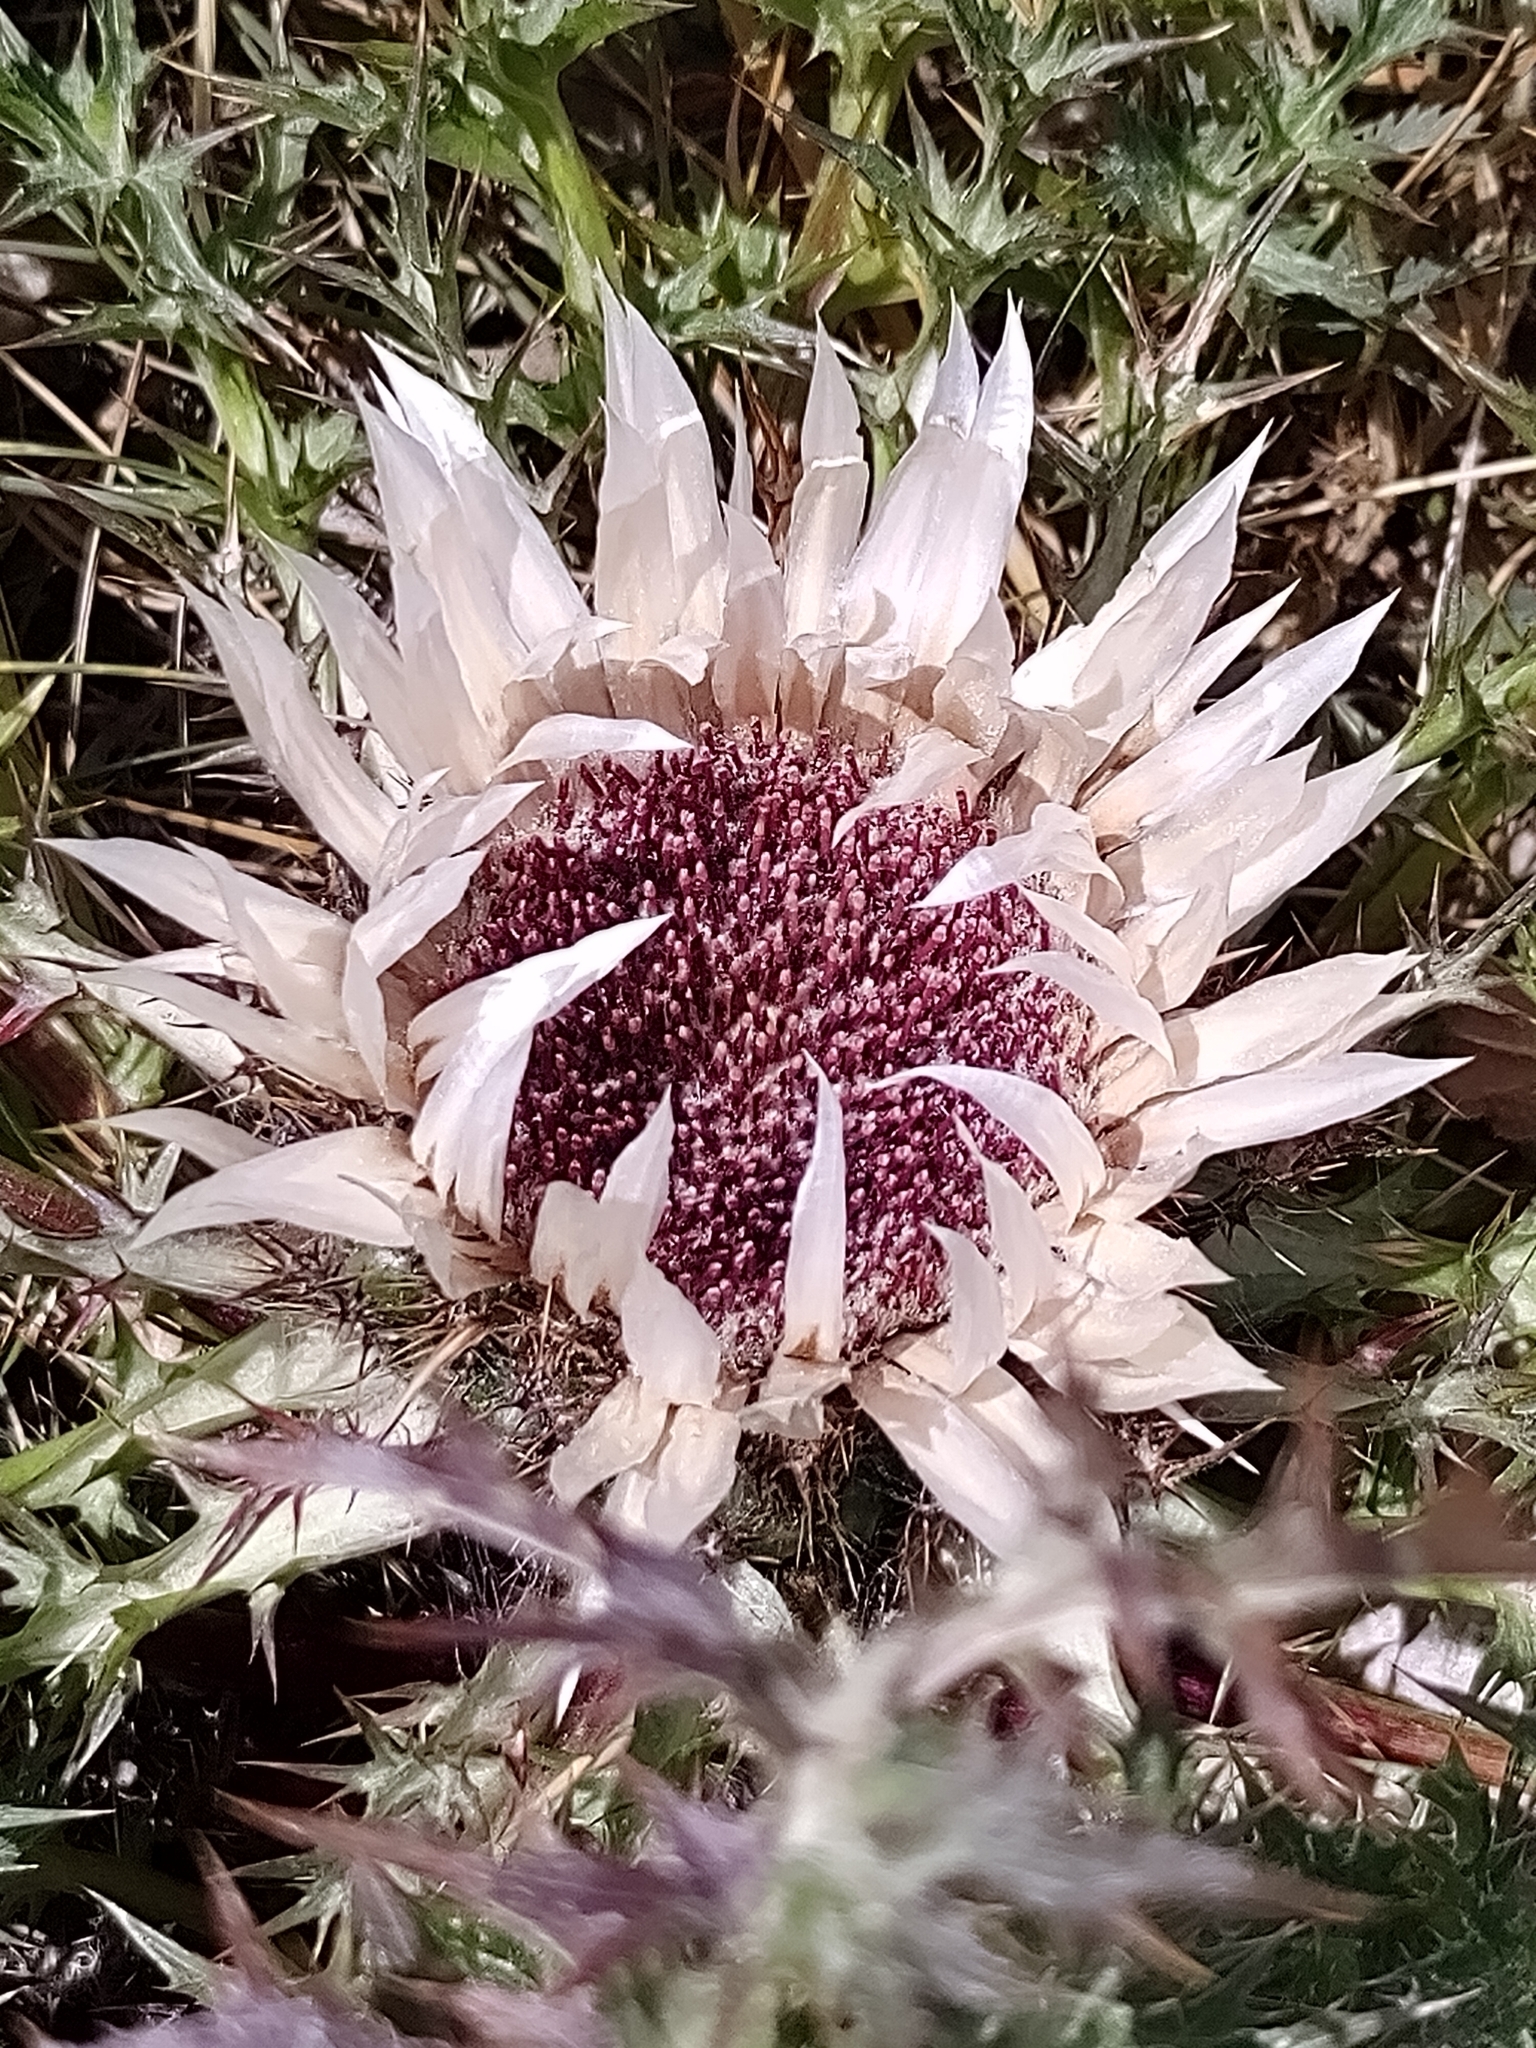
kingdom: Plantae
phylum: Tracheophyta
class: Magnoliopsida
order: Asterales
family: Asteraceae
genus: Carlina
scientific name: Carlina acaulis
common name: Stemless carline thistle
